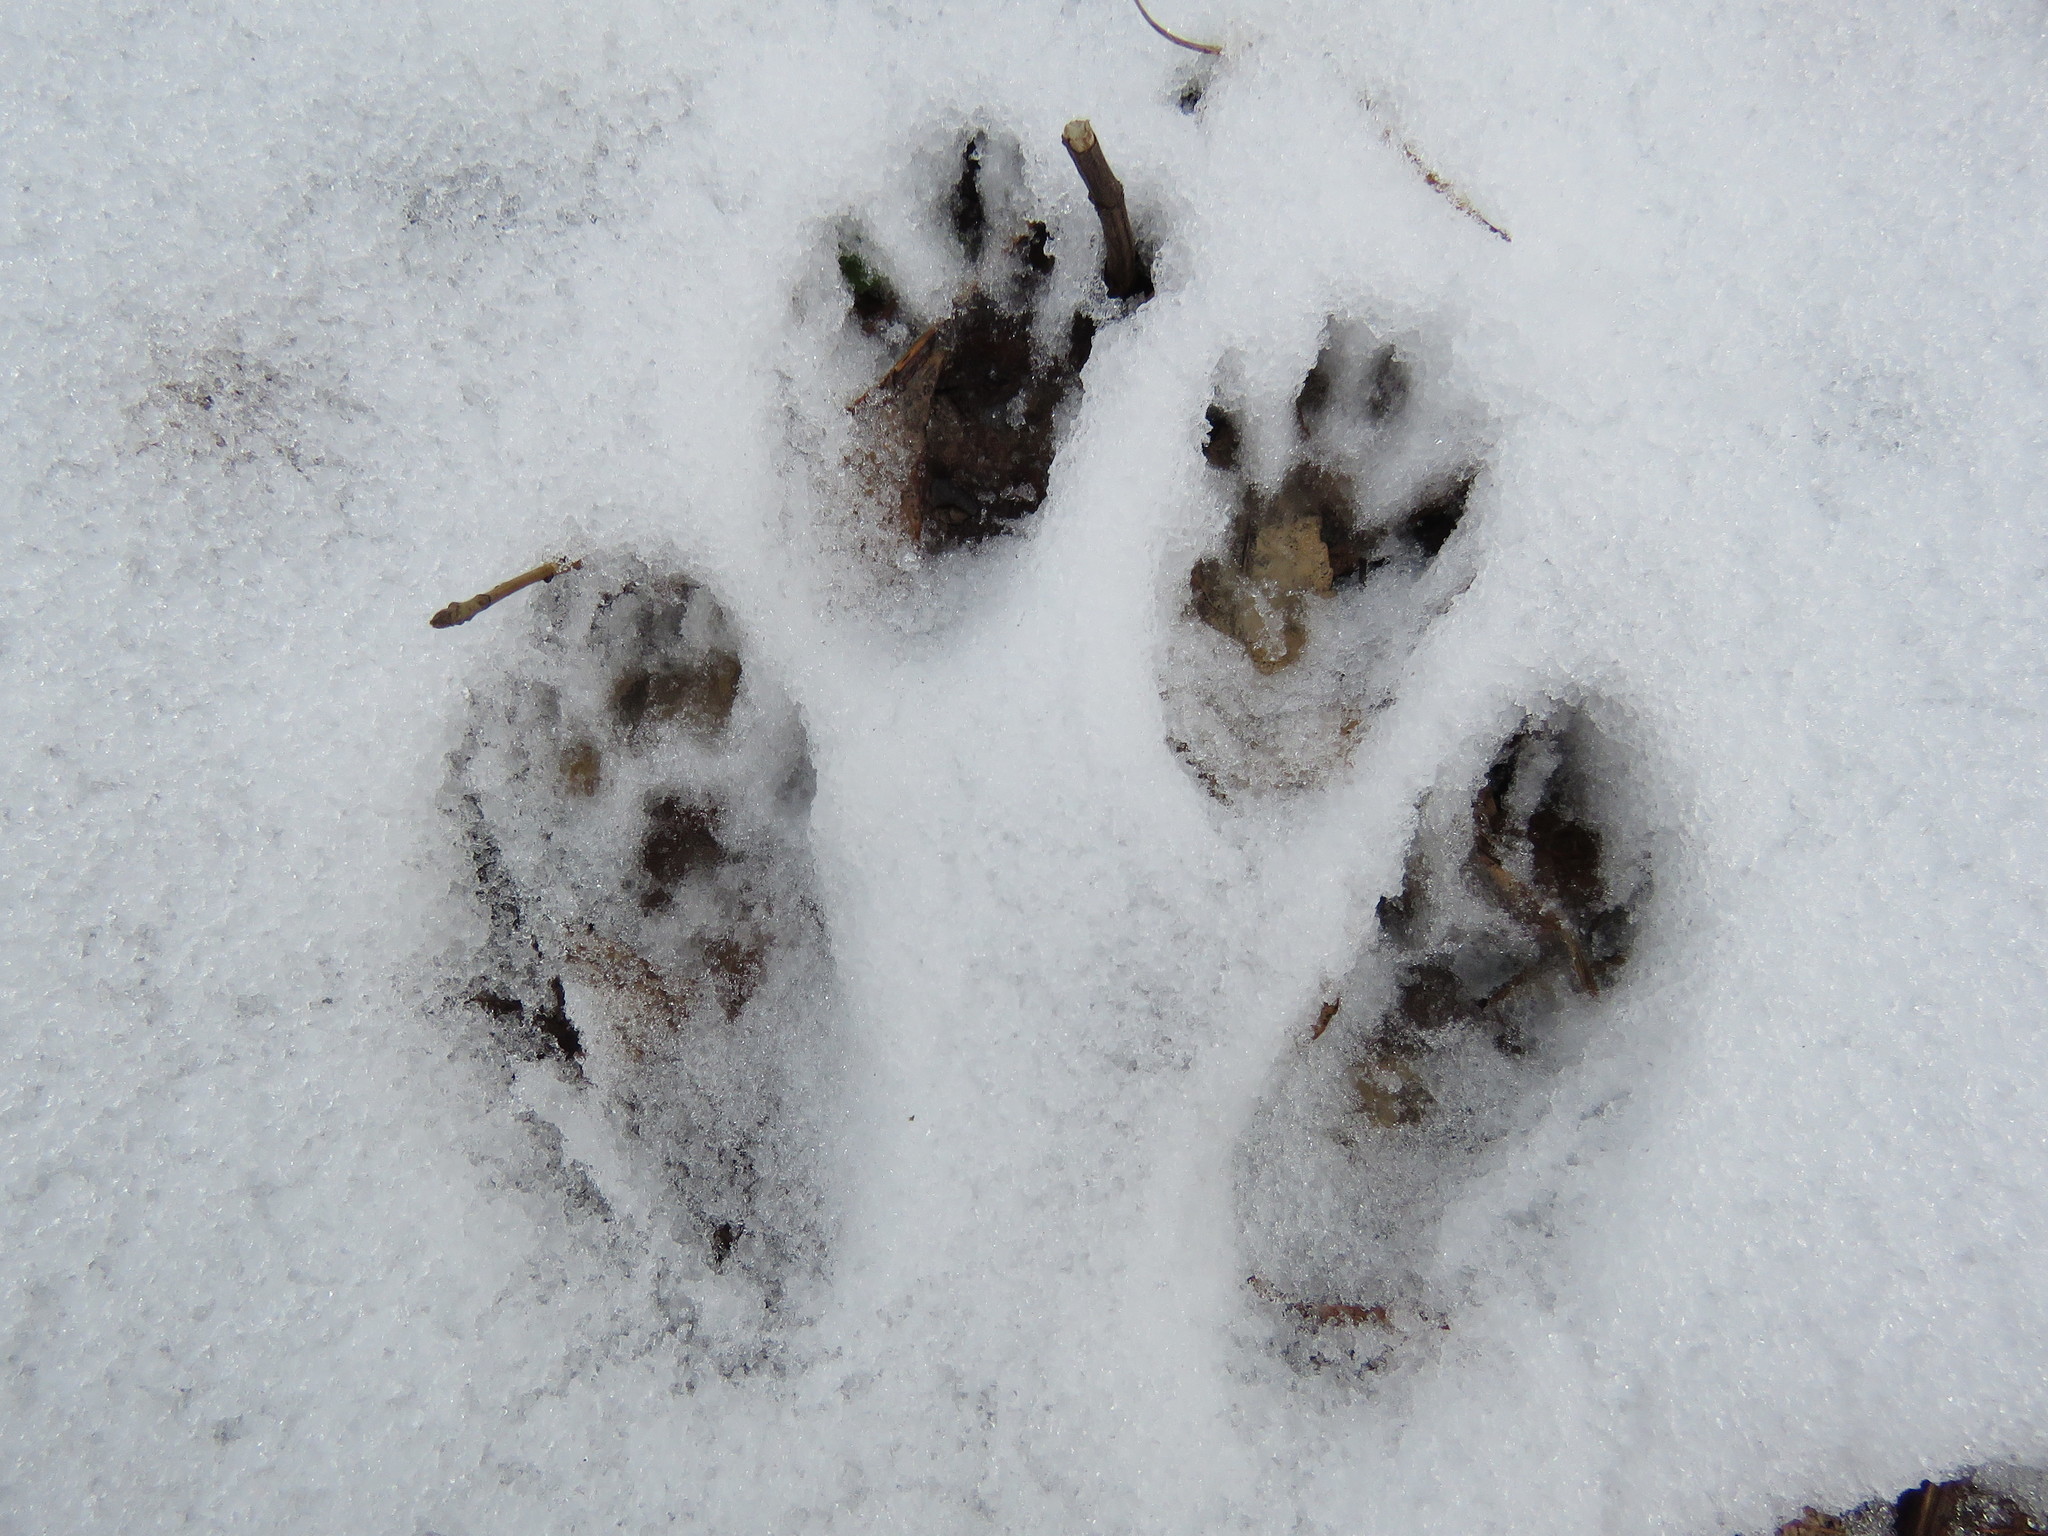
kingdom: Animalia
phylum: Chordata
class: Mammalia
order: Rodentia
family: Sciuridae
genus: Sciurus
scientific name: Sciurus carolinensis
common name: Eastern gray squirrel
